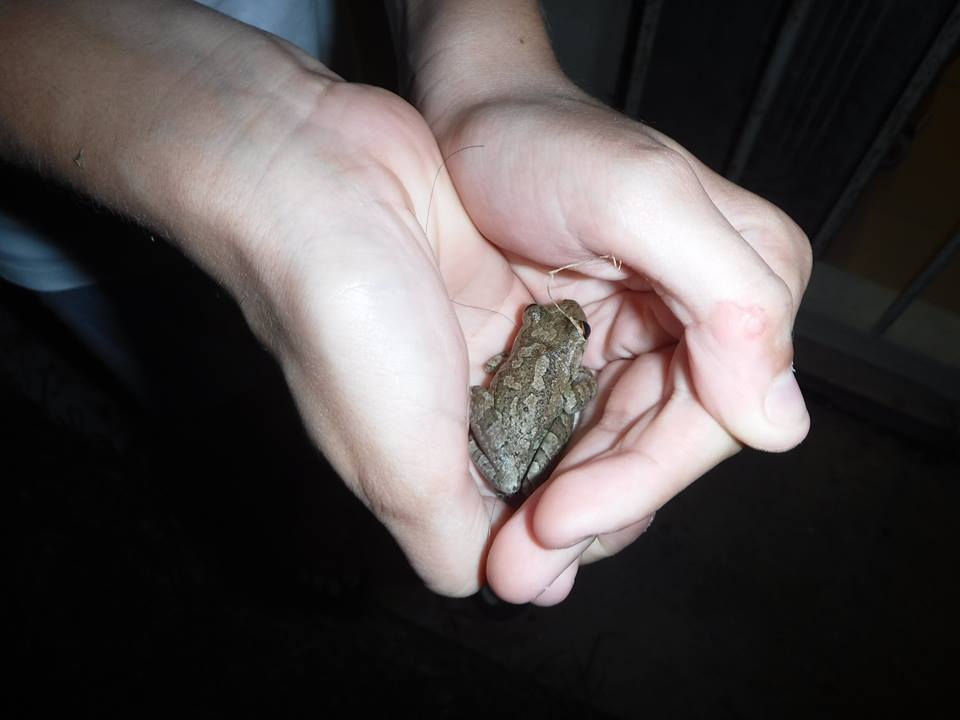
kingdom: Animalia
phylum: Chordata
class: Amphibia
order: Anura
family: Hylidae
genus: Osteopilus
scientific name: Osteopilus septentrionalis
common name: Cuban treefrog
